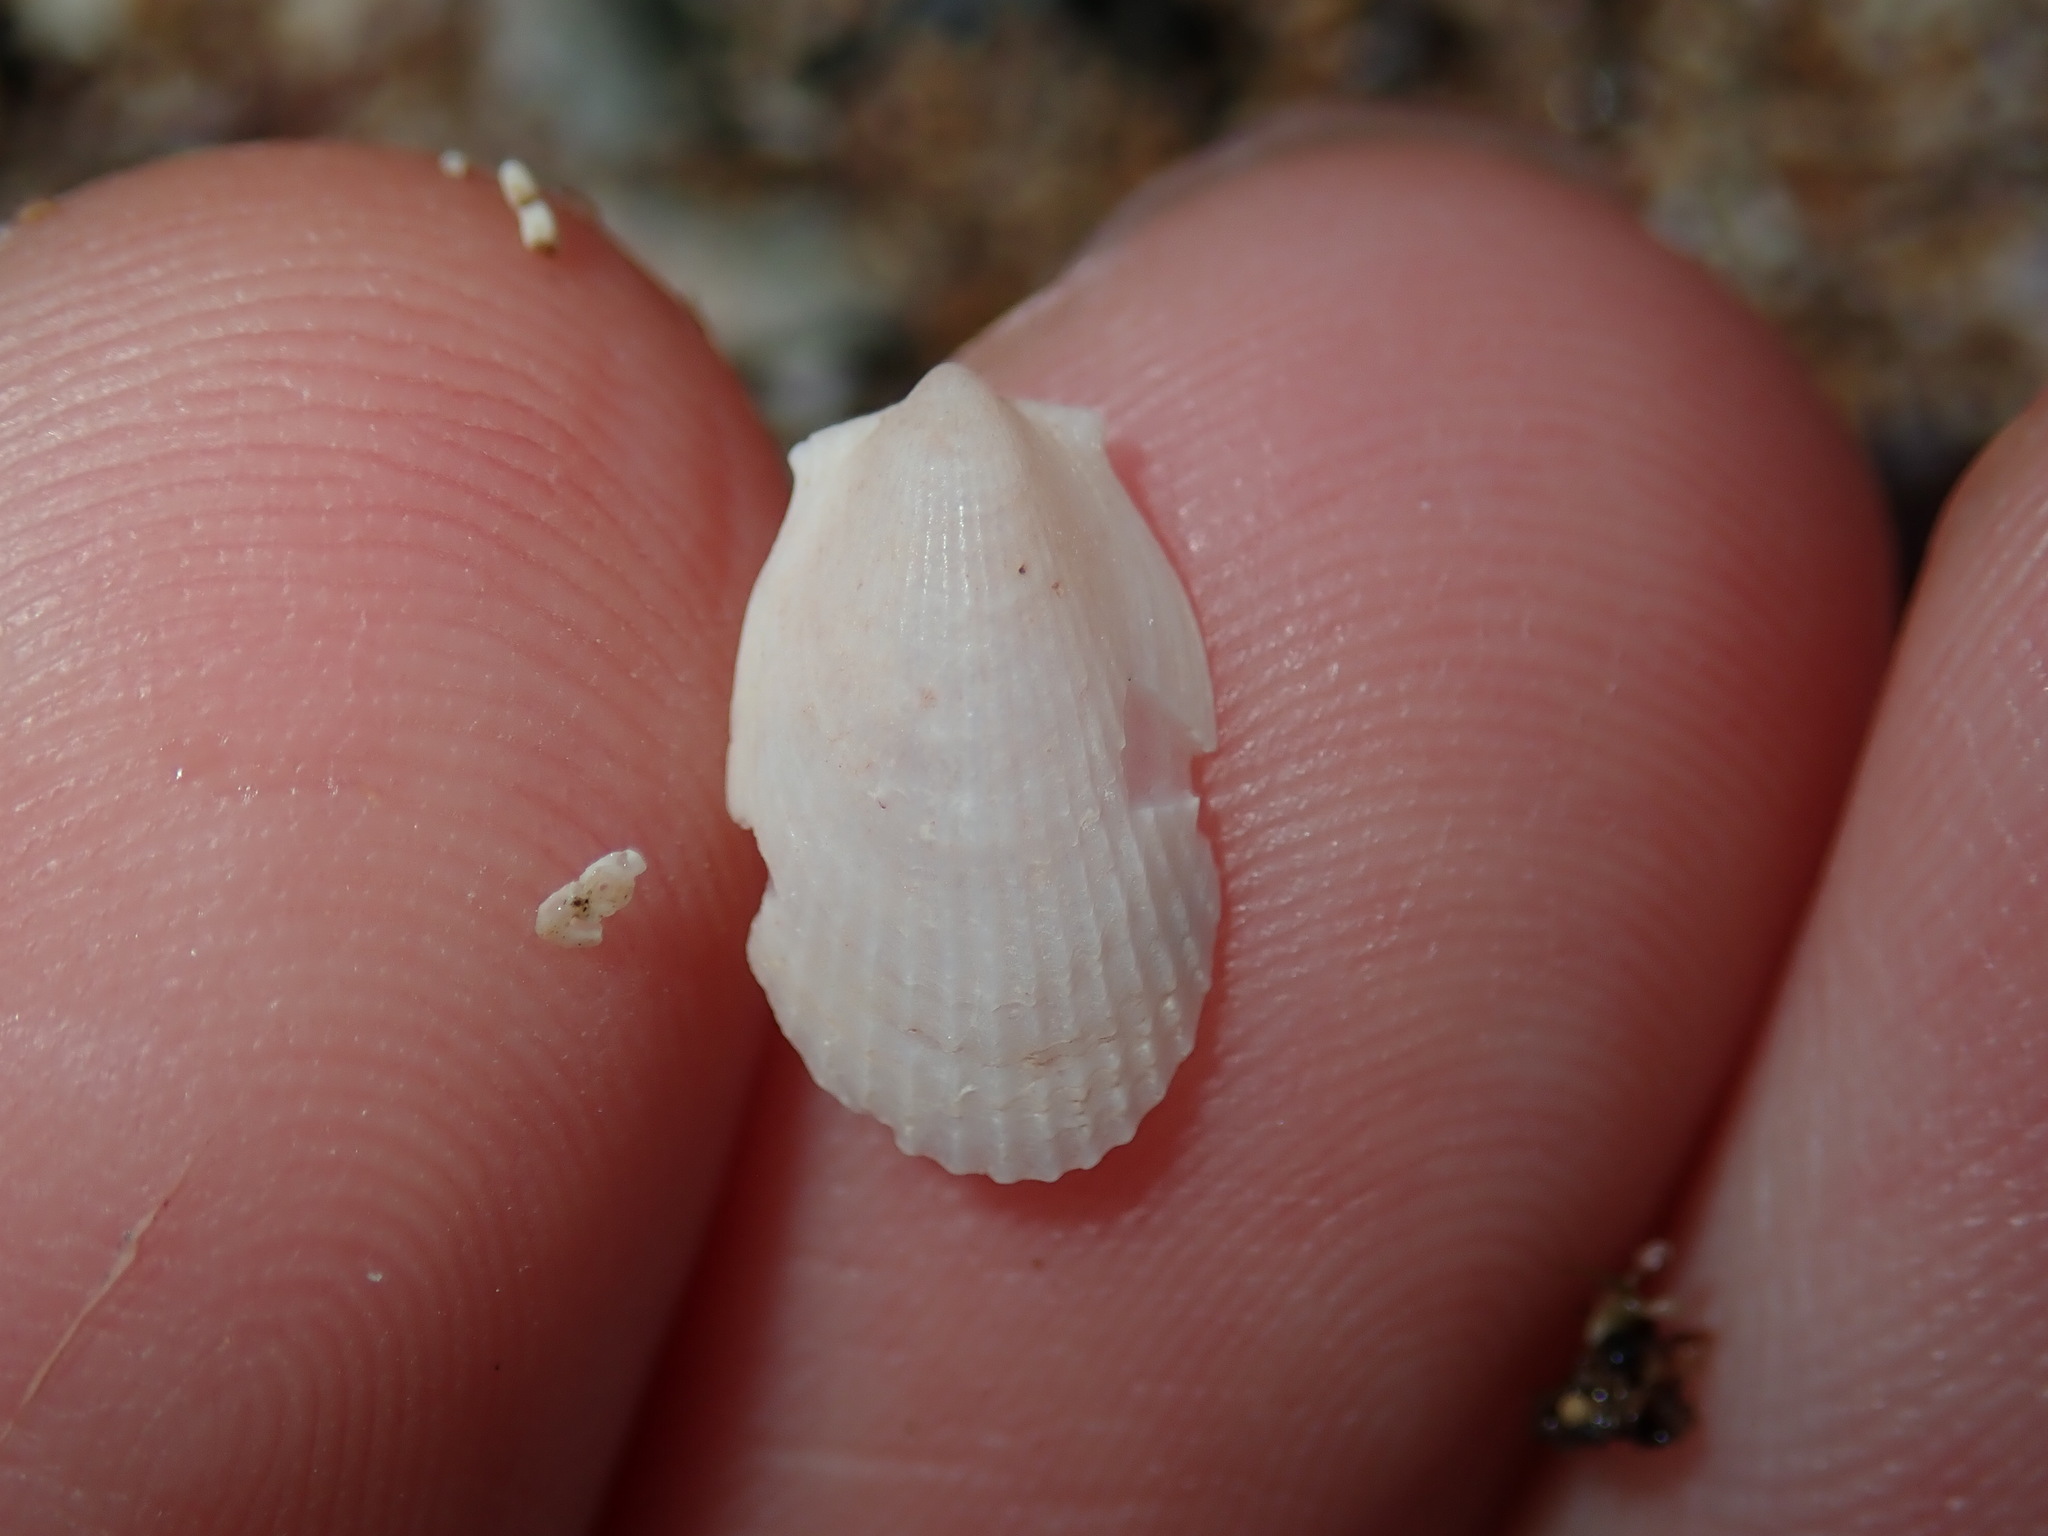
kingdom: Animalia
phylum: Mollusca
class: Bivalvia
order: Limida
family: Limidae
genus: Limatula
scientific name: Limatula strangei
